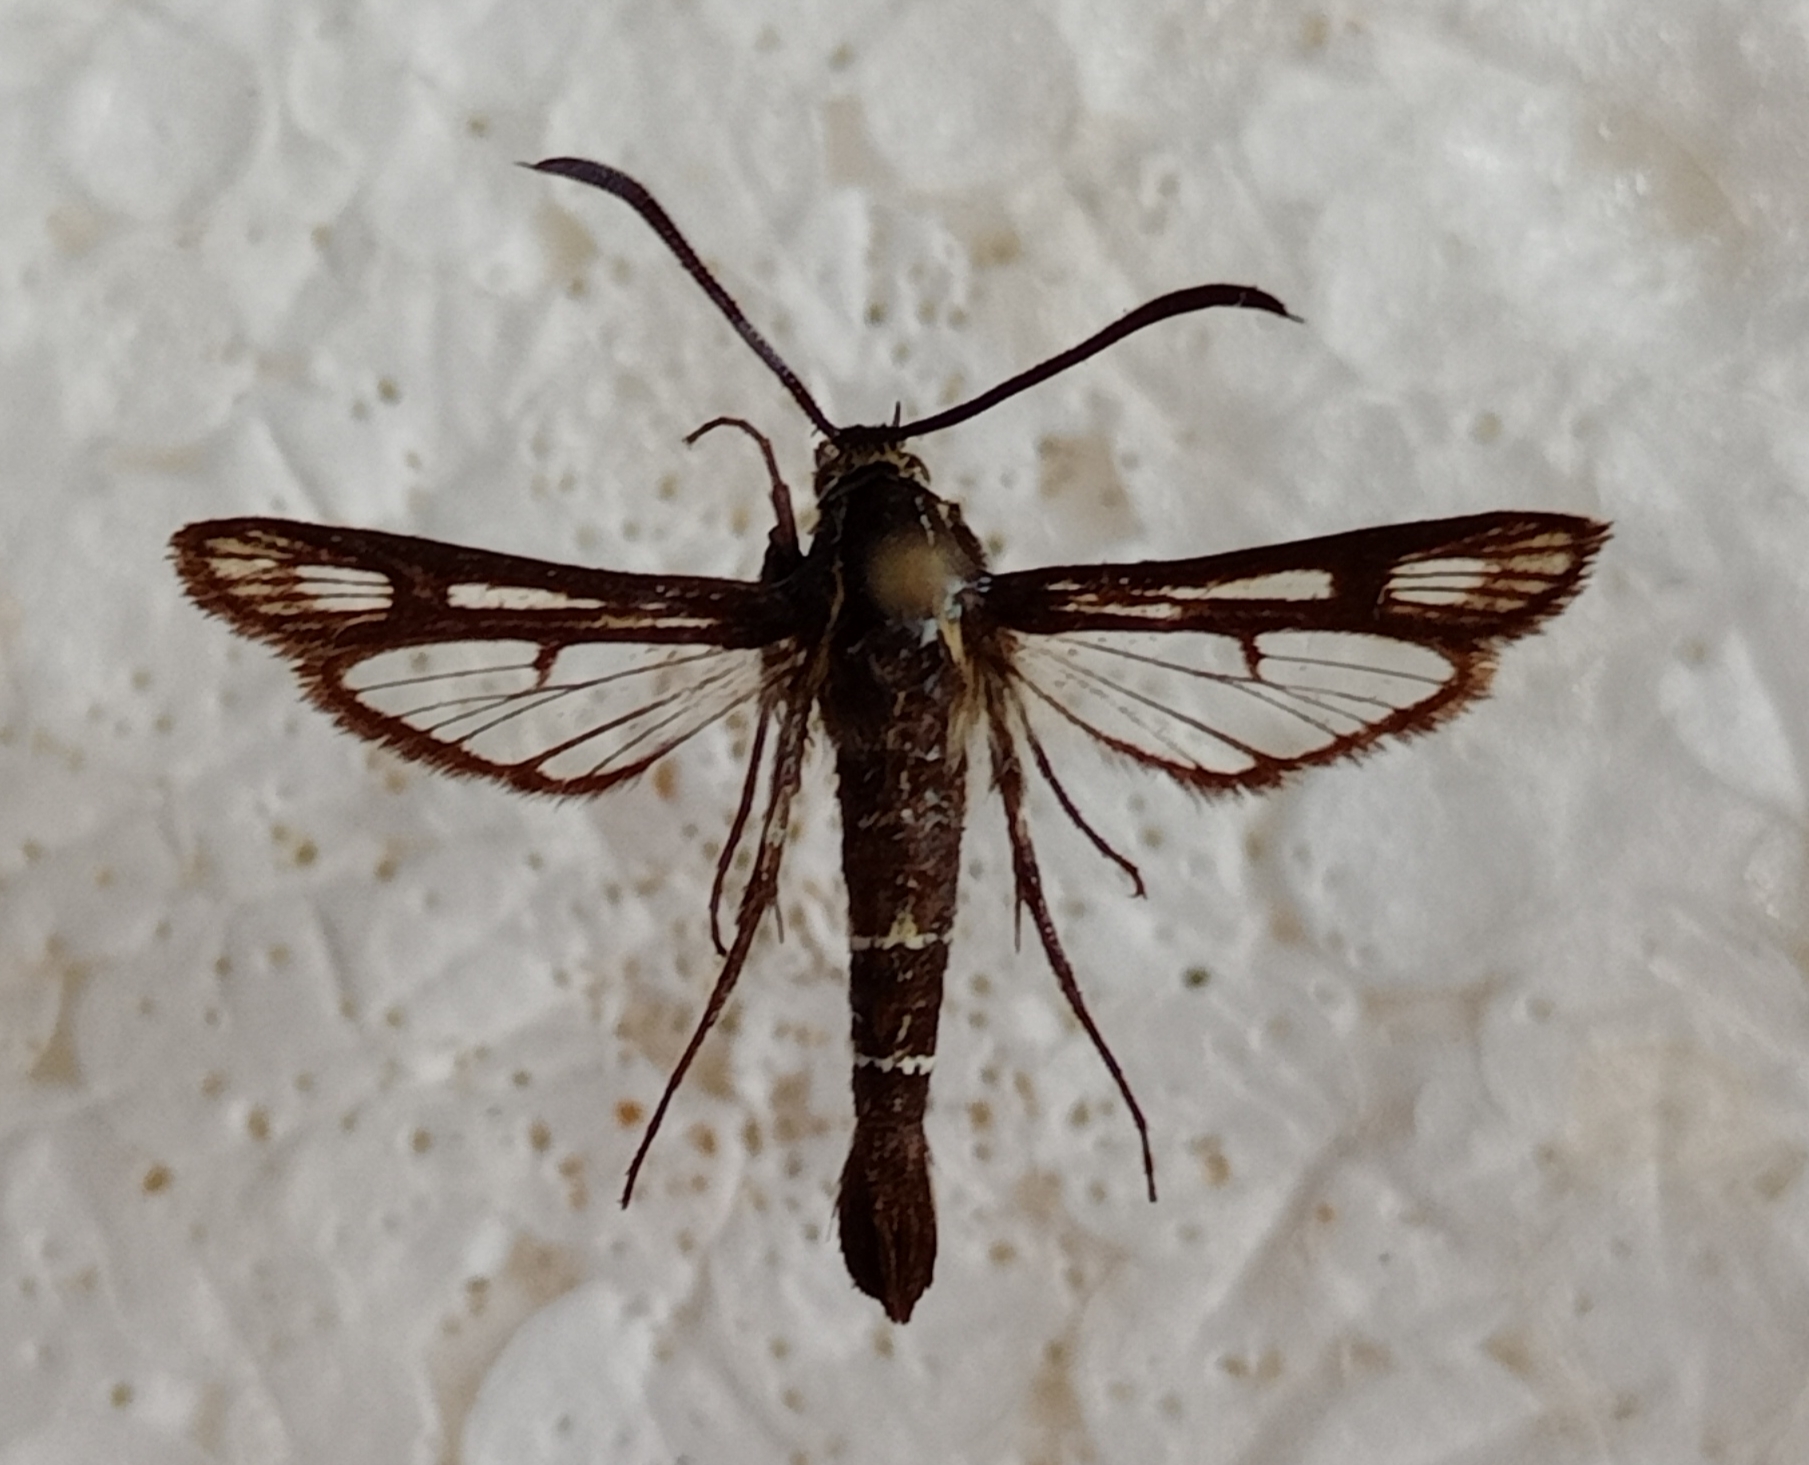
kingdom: Animalia
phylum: Arthropoda
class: Insecta
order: Lepidoptera
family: Sesiidae
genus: Chamaesphecia
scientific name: Chamaesphecia mysiniformis
